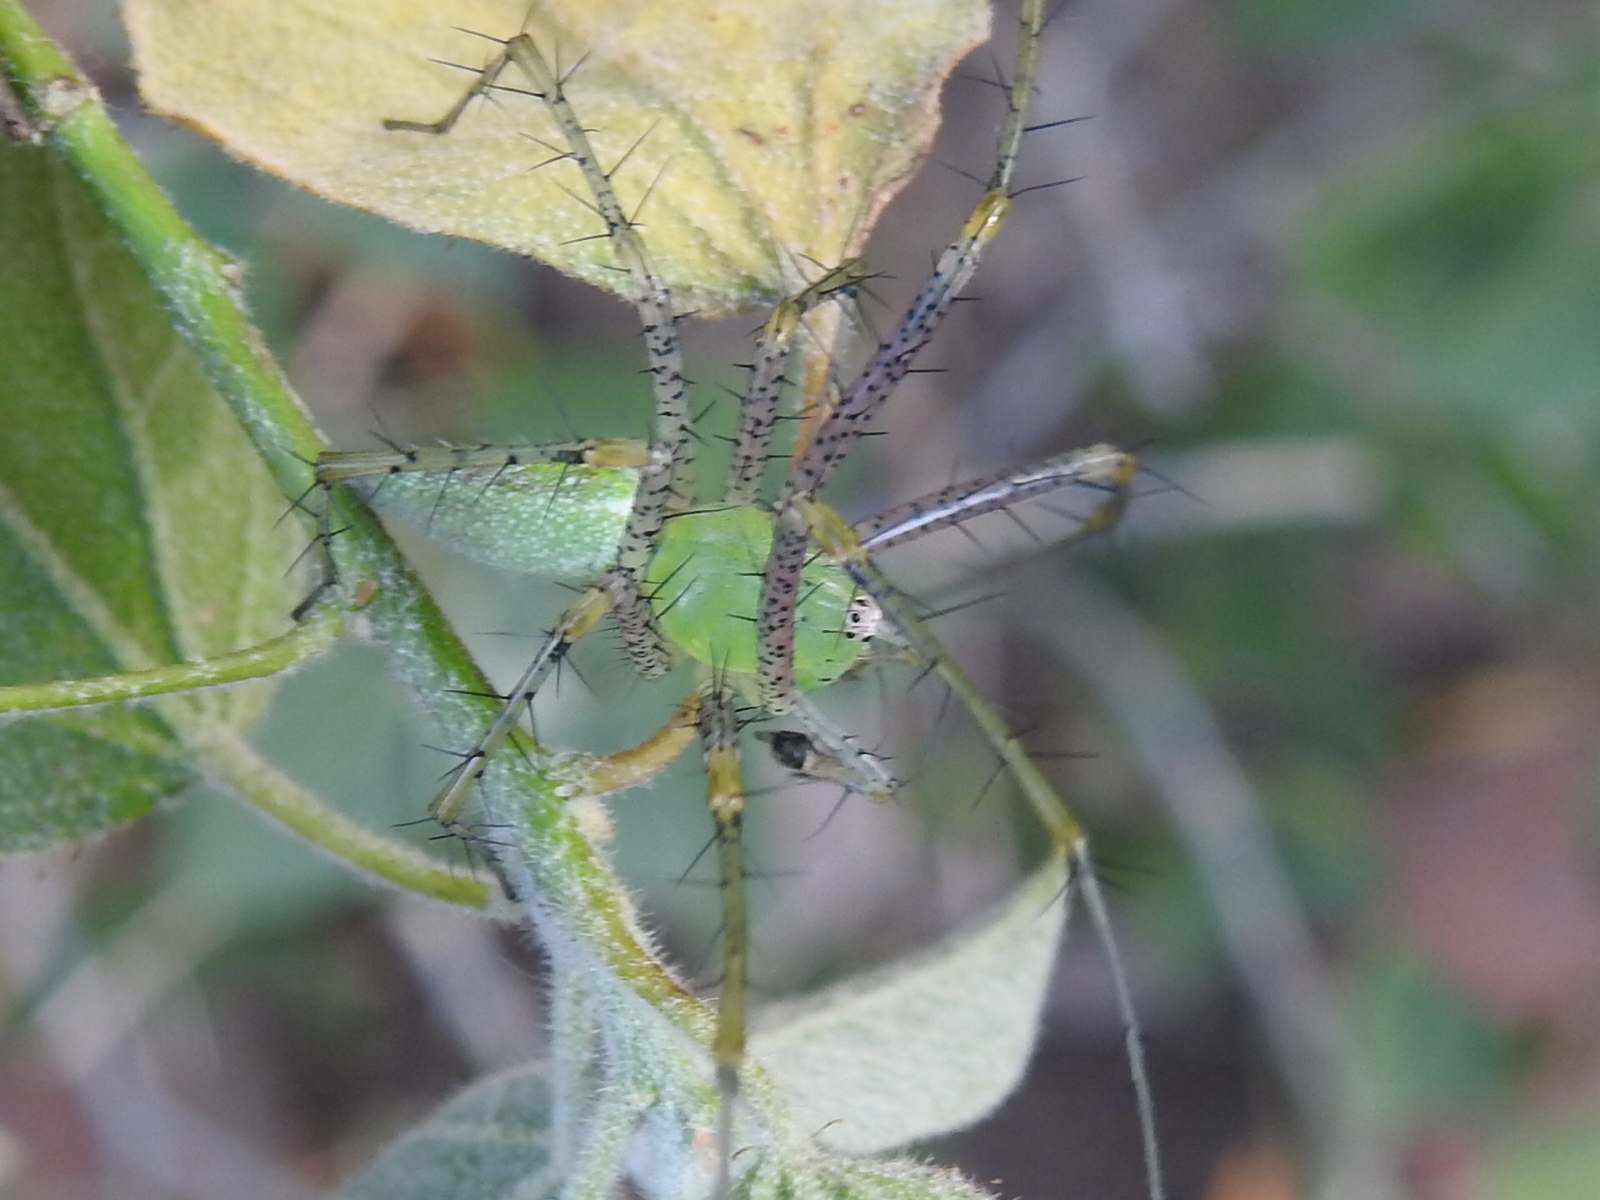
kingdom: Animalia
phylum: Arthropoda
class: Arachnida
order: Araneae
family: Oxyopidae
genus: Peucetia
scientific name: Peucetia viridans
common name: Lynx spiders
